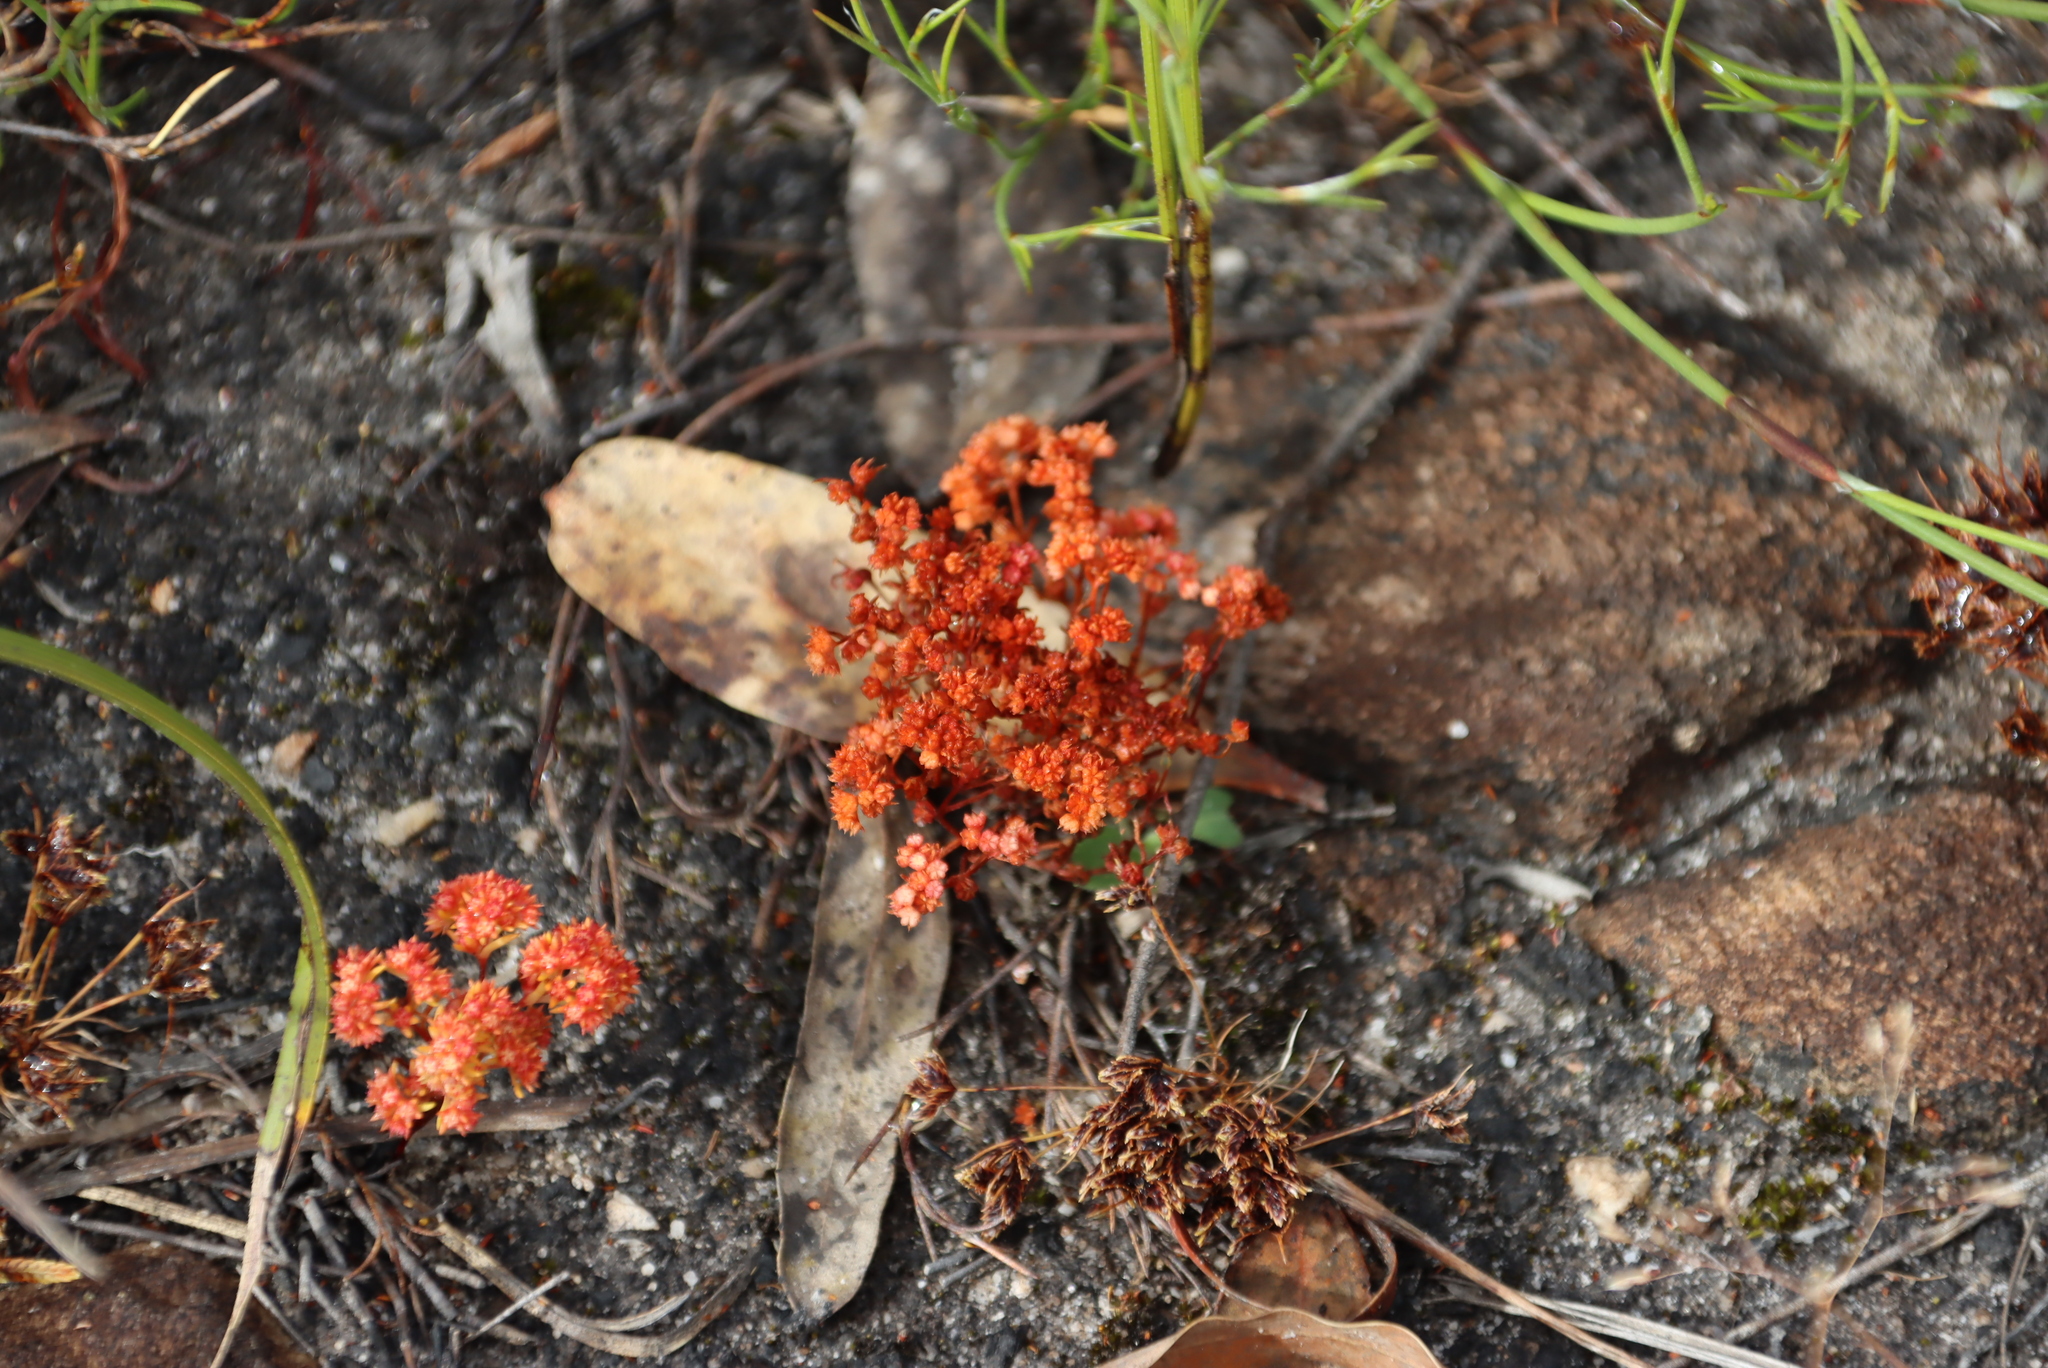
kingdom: Plantae
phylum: Tracheophyta
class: Magnoliopsida
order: Saxifragales
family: Crassulaceae
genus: Crassula
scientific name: Crassula glomerata
